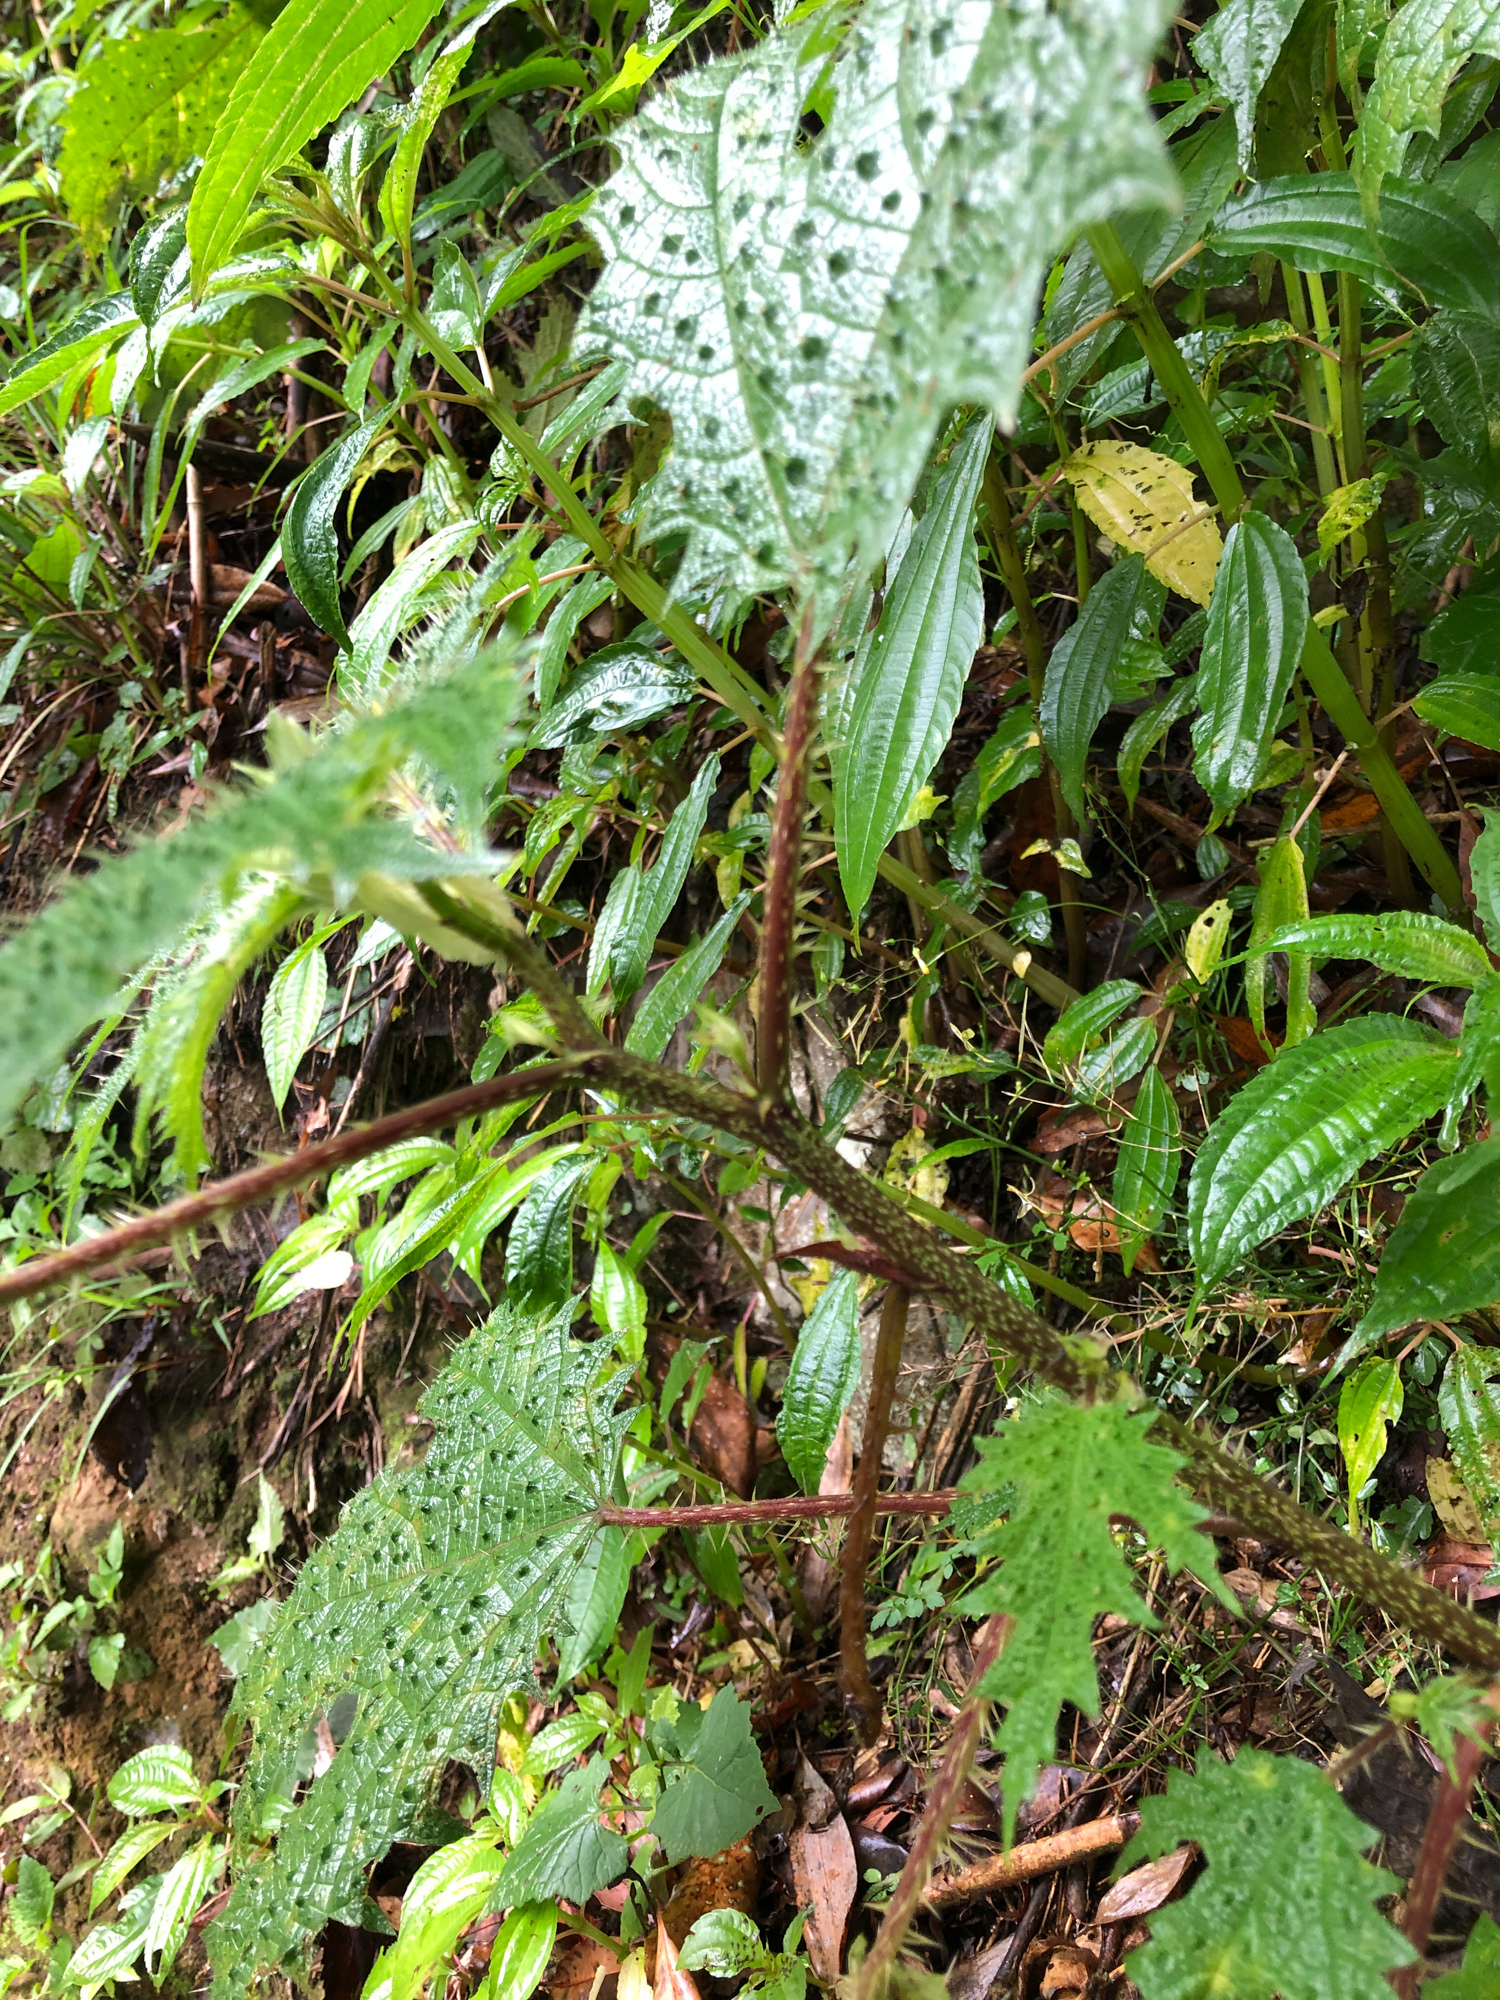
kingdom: Plantae
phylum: Tracheophyta
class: Magnoliopsida
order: Rosales
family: Urticaceae
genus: Girardinia
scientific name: Girardinia diversifolia
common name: Himalayan-nettle
